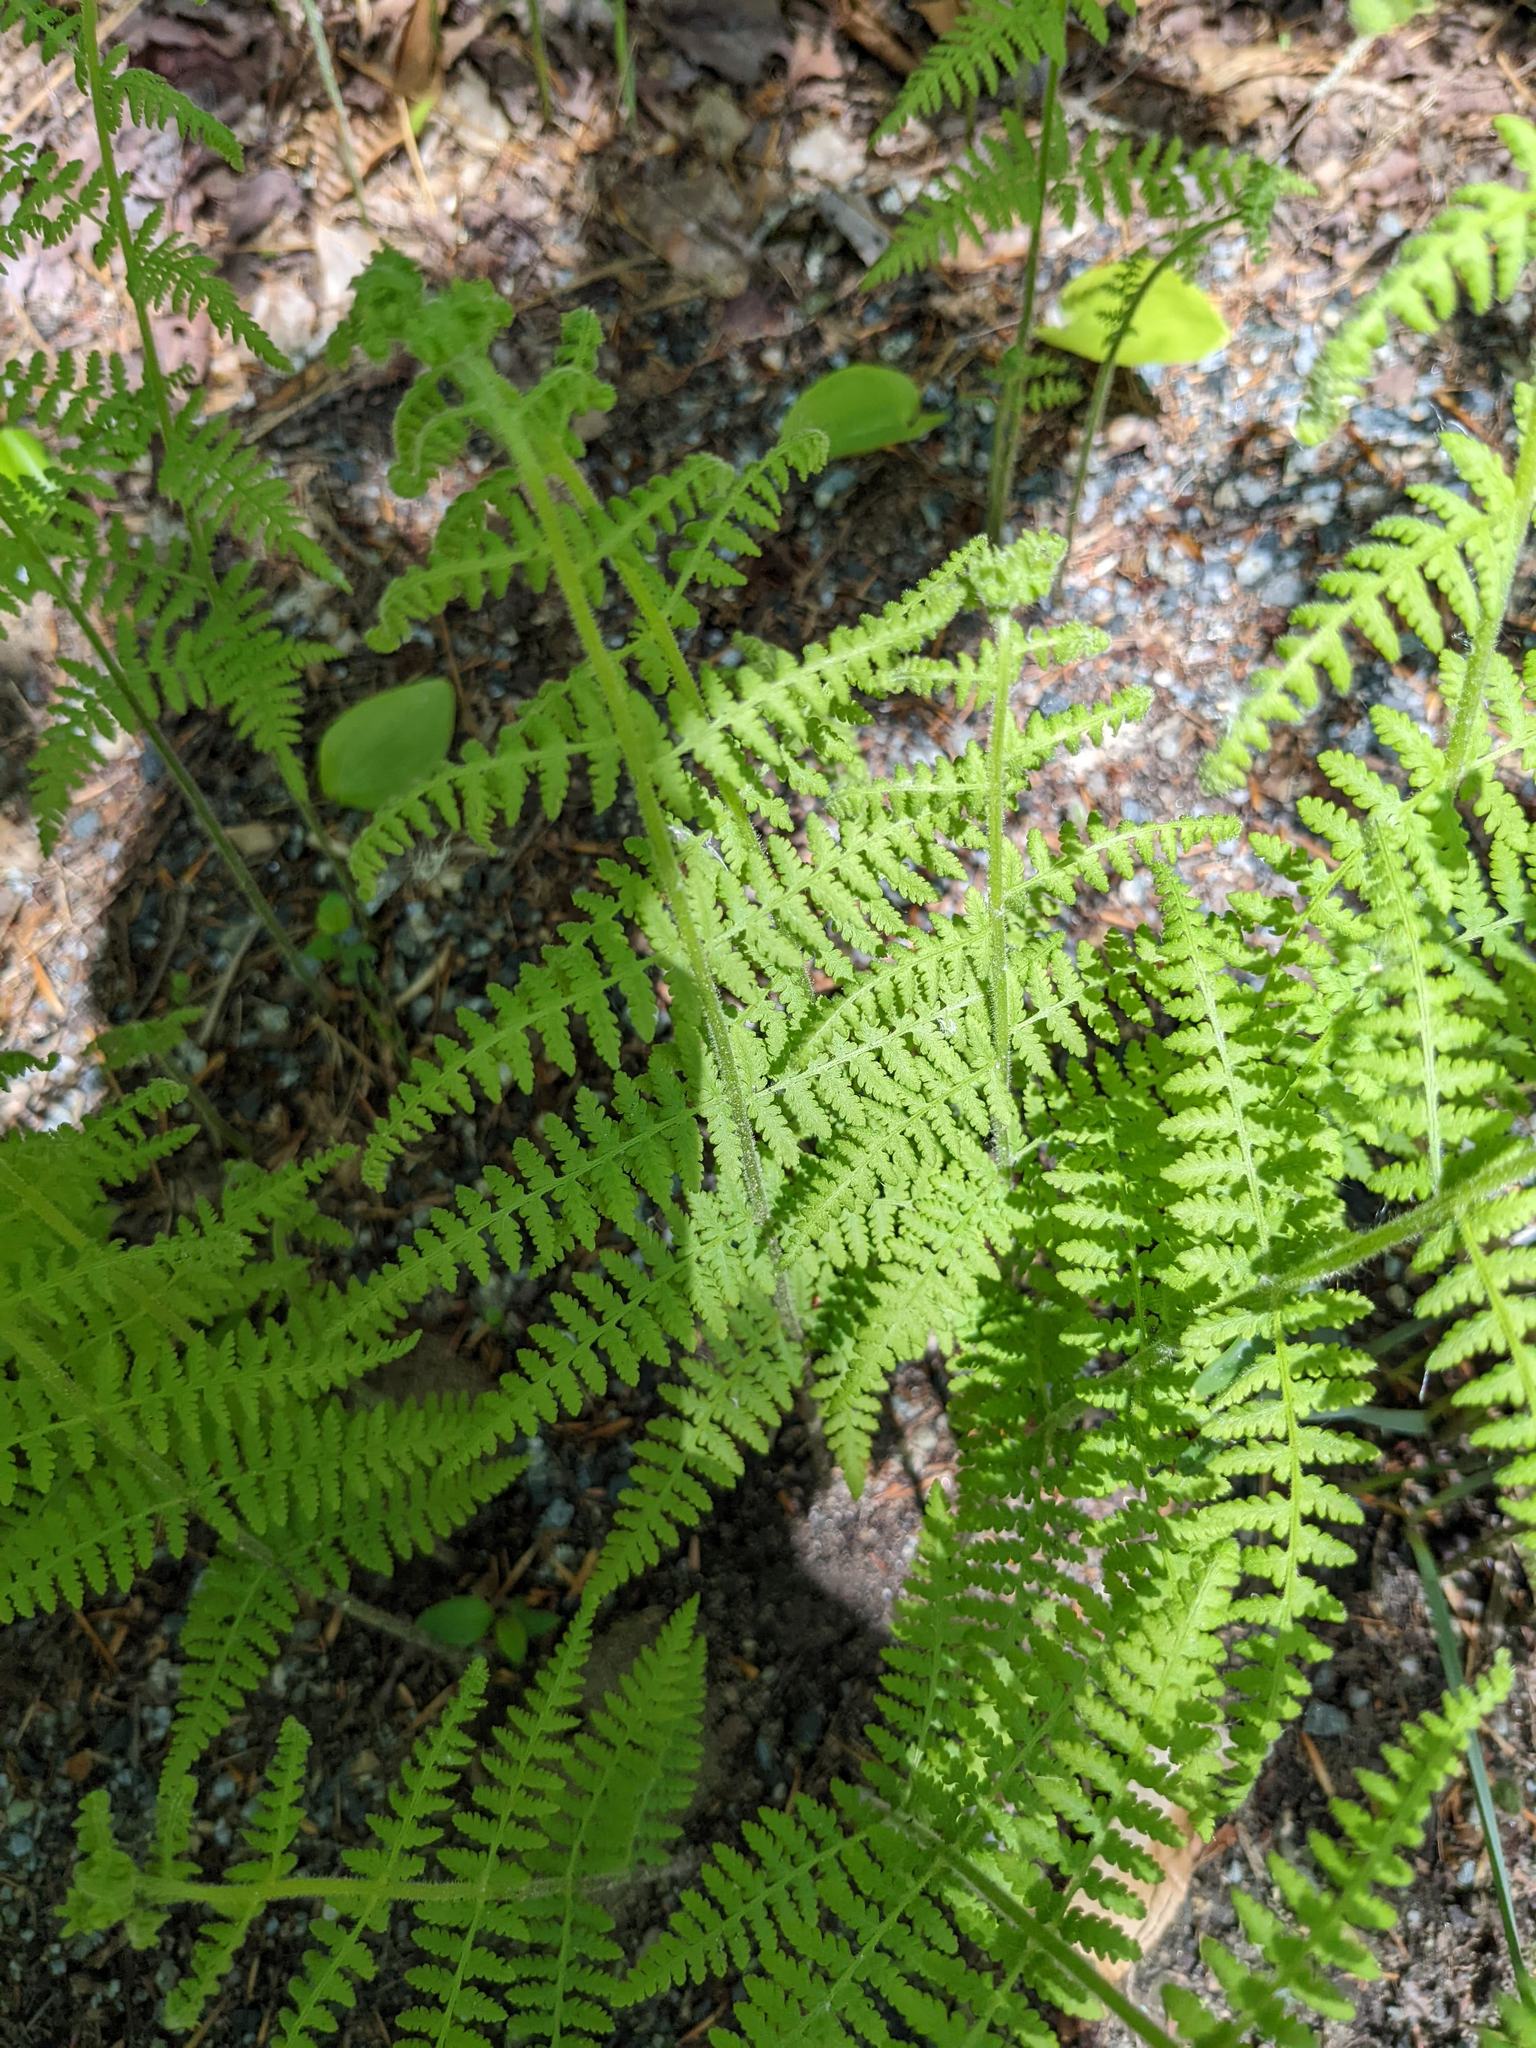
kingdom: Plantae
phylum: Tracheophyta
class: Polypodiopsida
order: Polypodiales
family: Dennstaedtiaceae
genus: Sitobolium
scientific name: Sitobolium punctilobum
